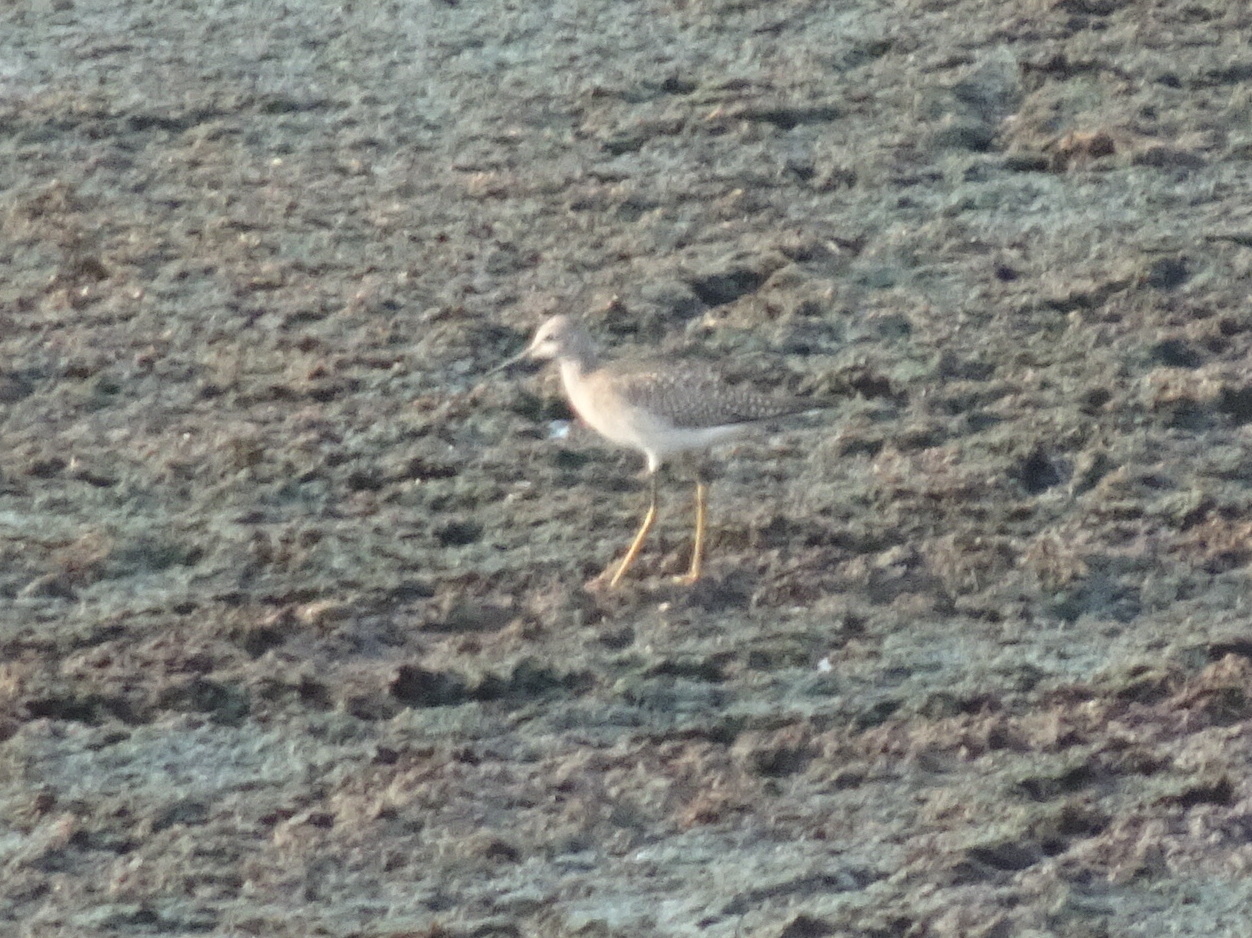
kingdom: Animalia
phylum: Chordata
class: Aves
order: Charadriiformes
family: Scolopacidae
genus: Tringa
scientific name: Tringa flavipes
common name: Lesser yellowlegs
